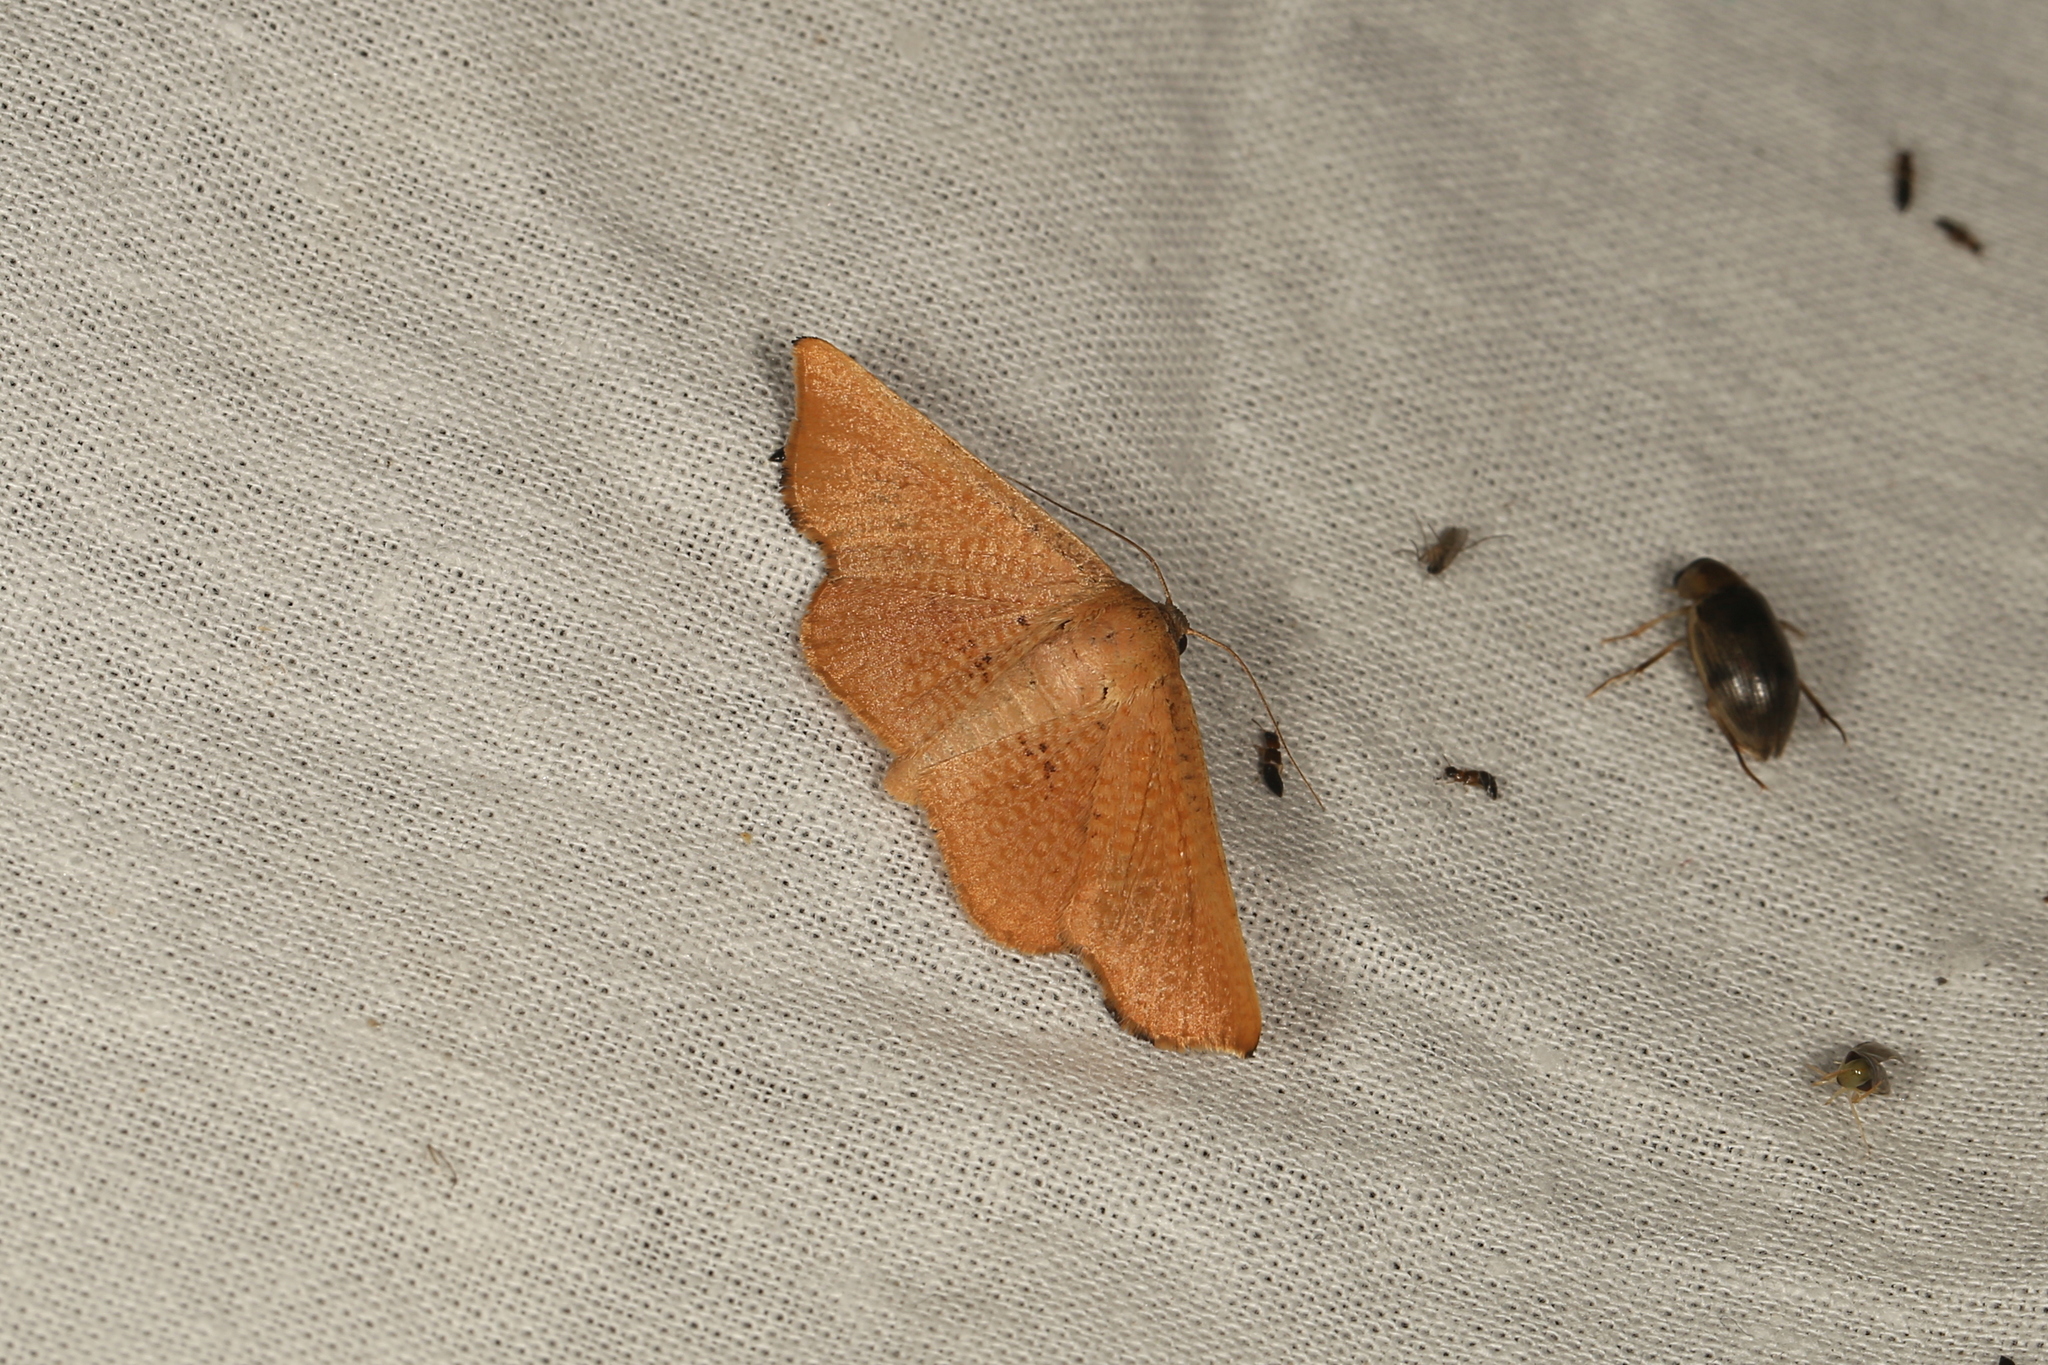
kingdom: Animalia
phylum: Arthropoda
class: Insecta
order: Lepidoptera
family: Thyrididae
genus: Aglaopus
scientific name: Aglaopus centiginosa
